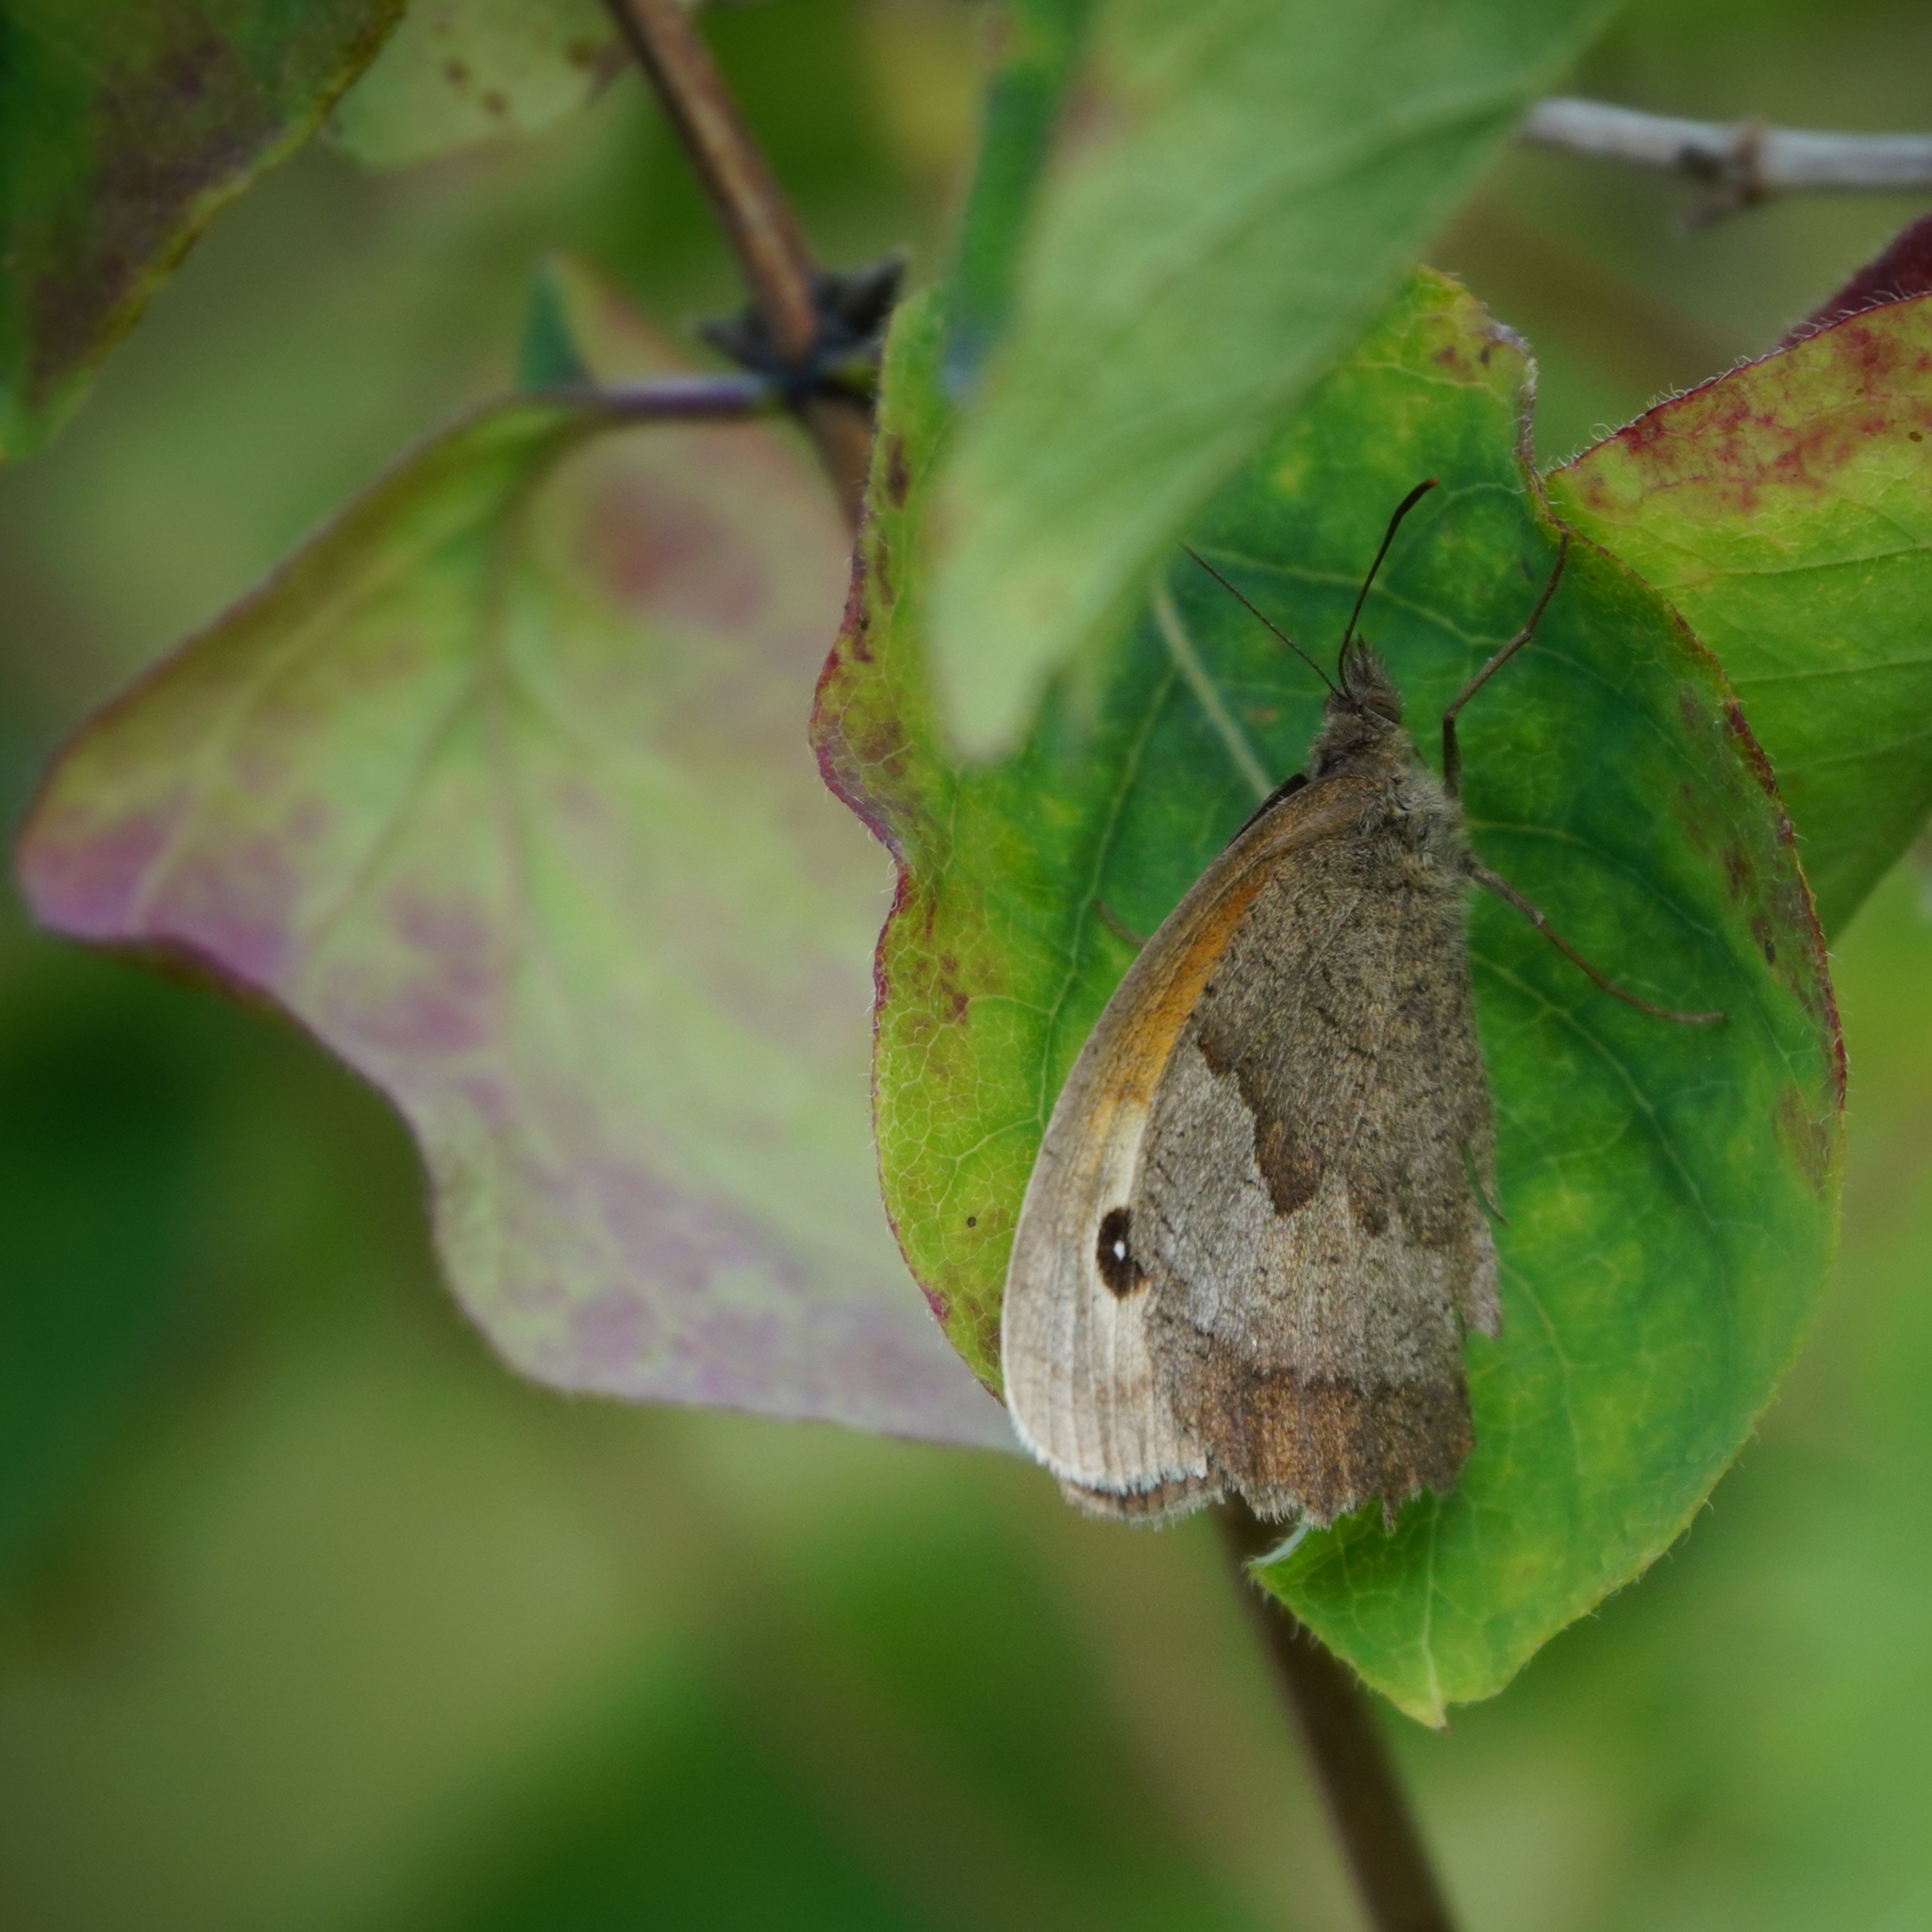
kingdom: Animalia
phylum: Arthropoda
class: Insecta
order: Lepidoptera
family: Nymphalidae
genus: Maniola
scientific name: Maniola jurtina
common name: Meadow brown
